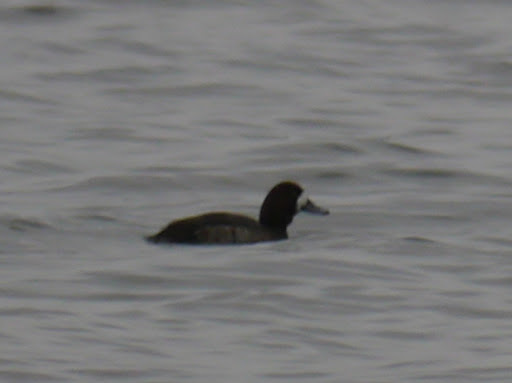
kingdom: Animalia
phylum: Chordata
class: Aves
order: Anseriformes
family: Anatidae
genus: Aythya
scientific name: Aythya marila
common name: Greater scaup
